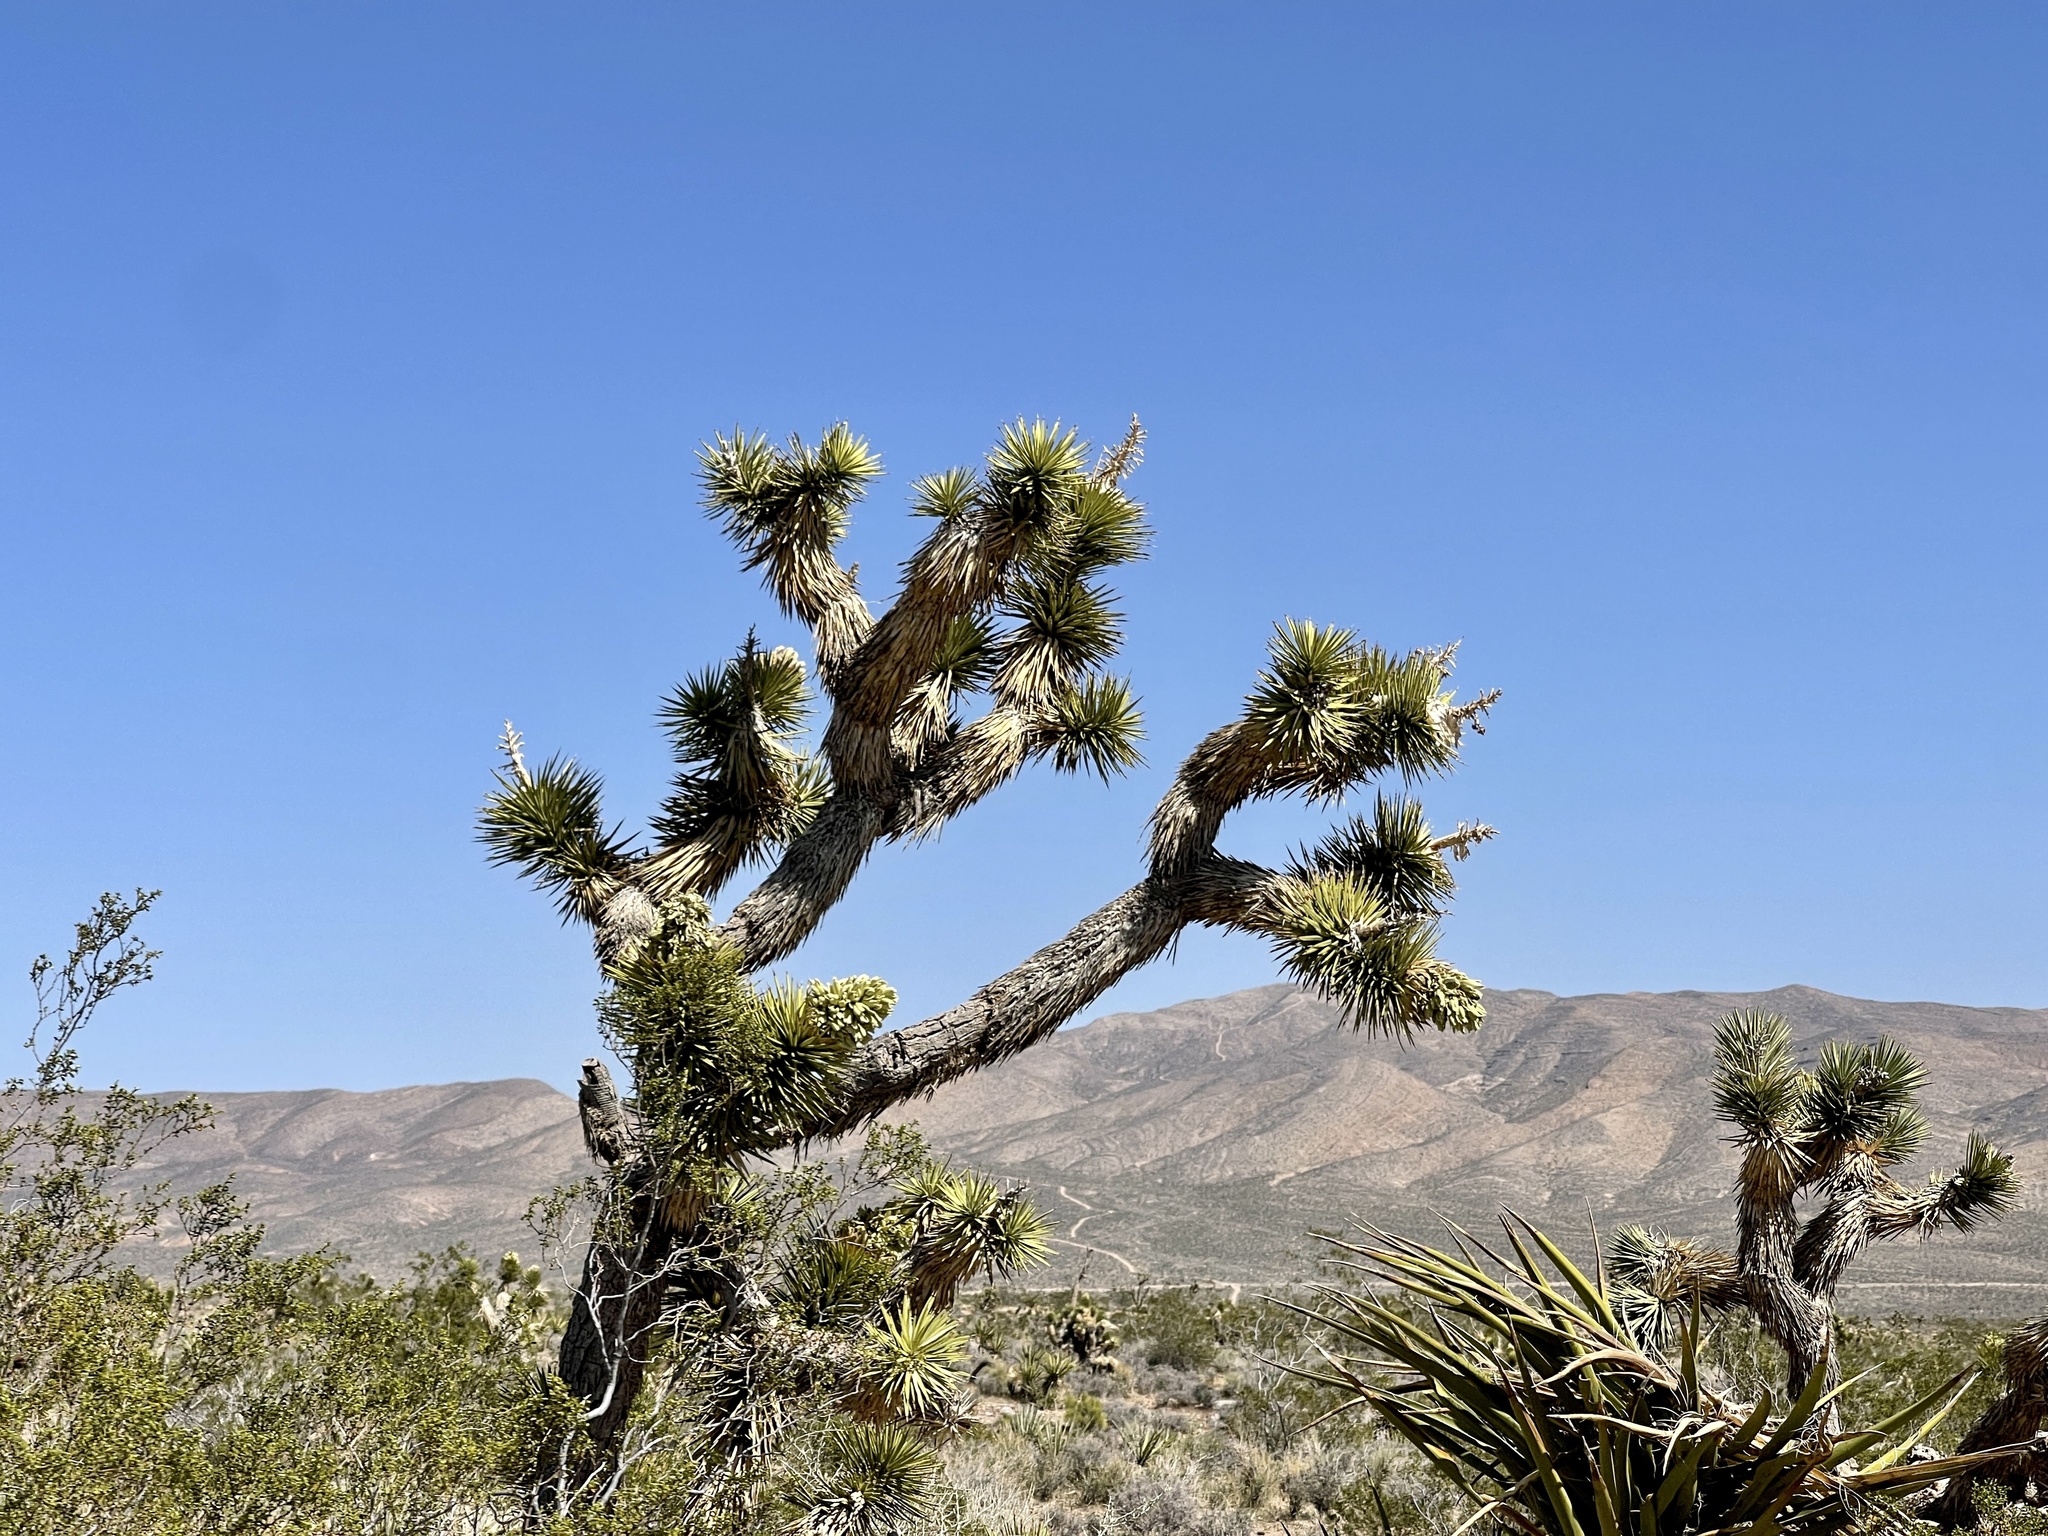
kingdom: Plantae
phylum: Tracheophyta
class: Liliopsida
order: Asparagales
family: Asparagaceae
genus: Yucca
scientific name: Yucca brevifolia
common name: Joshua tree
